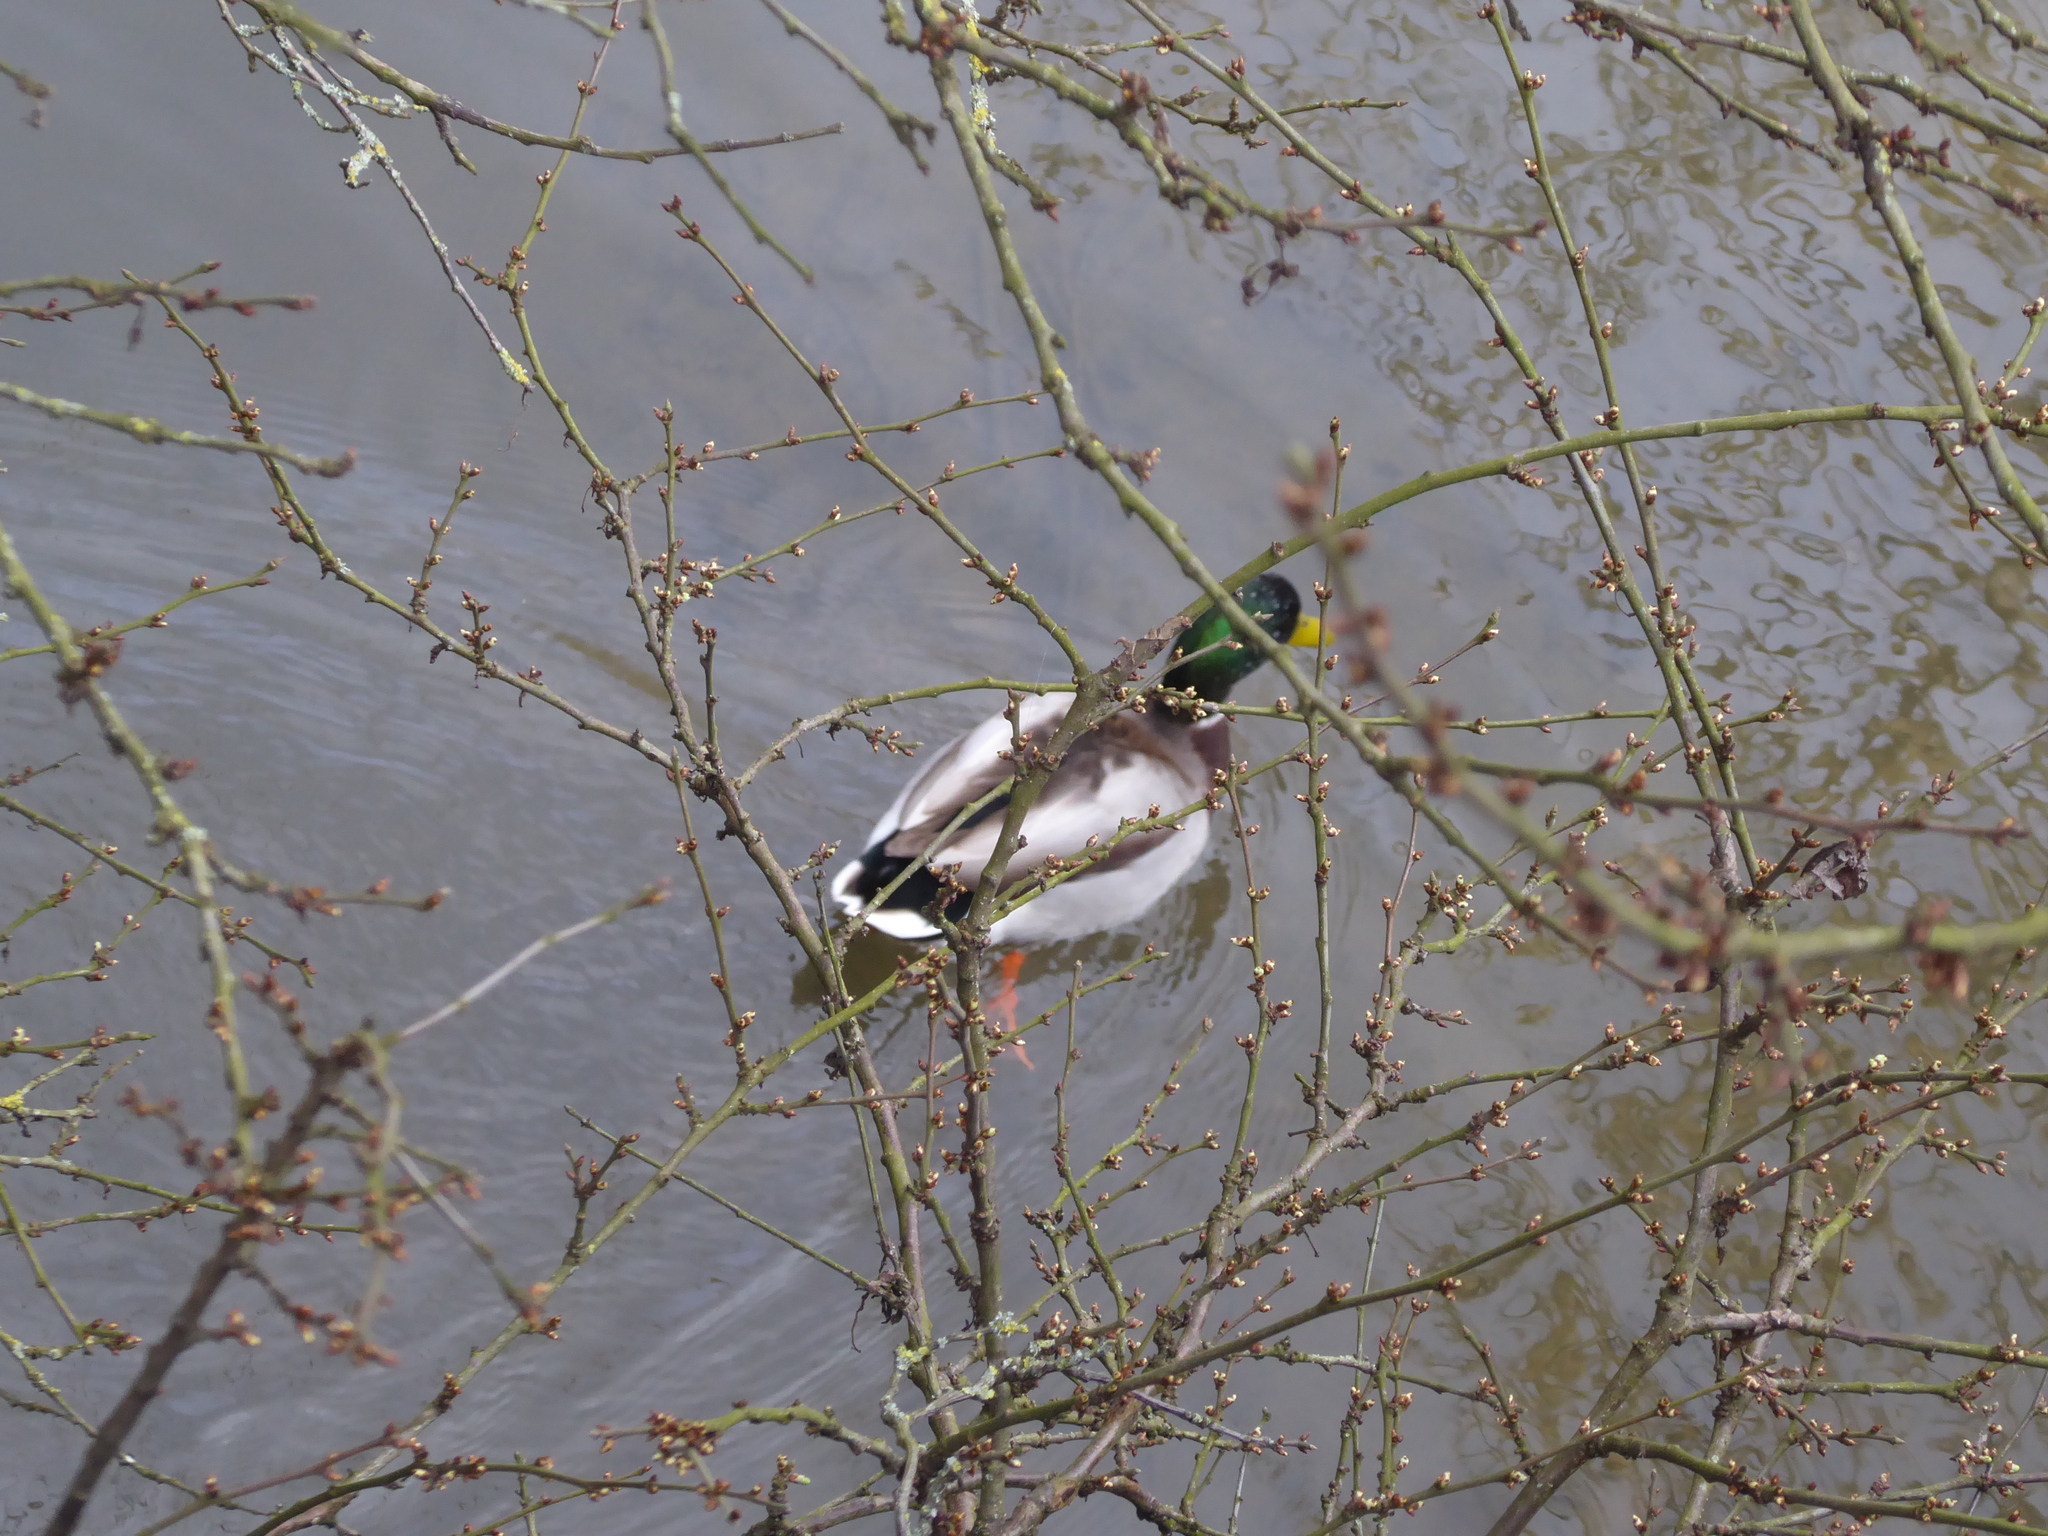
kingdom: Animalia
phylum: Chordata
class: Aves
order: Anseriformes
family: Anatidae
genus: Anas
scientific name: Anas platyrhynchos
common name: Mallard
